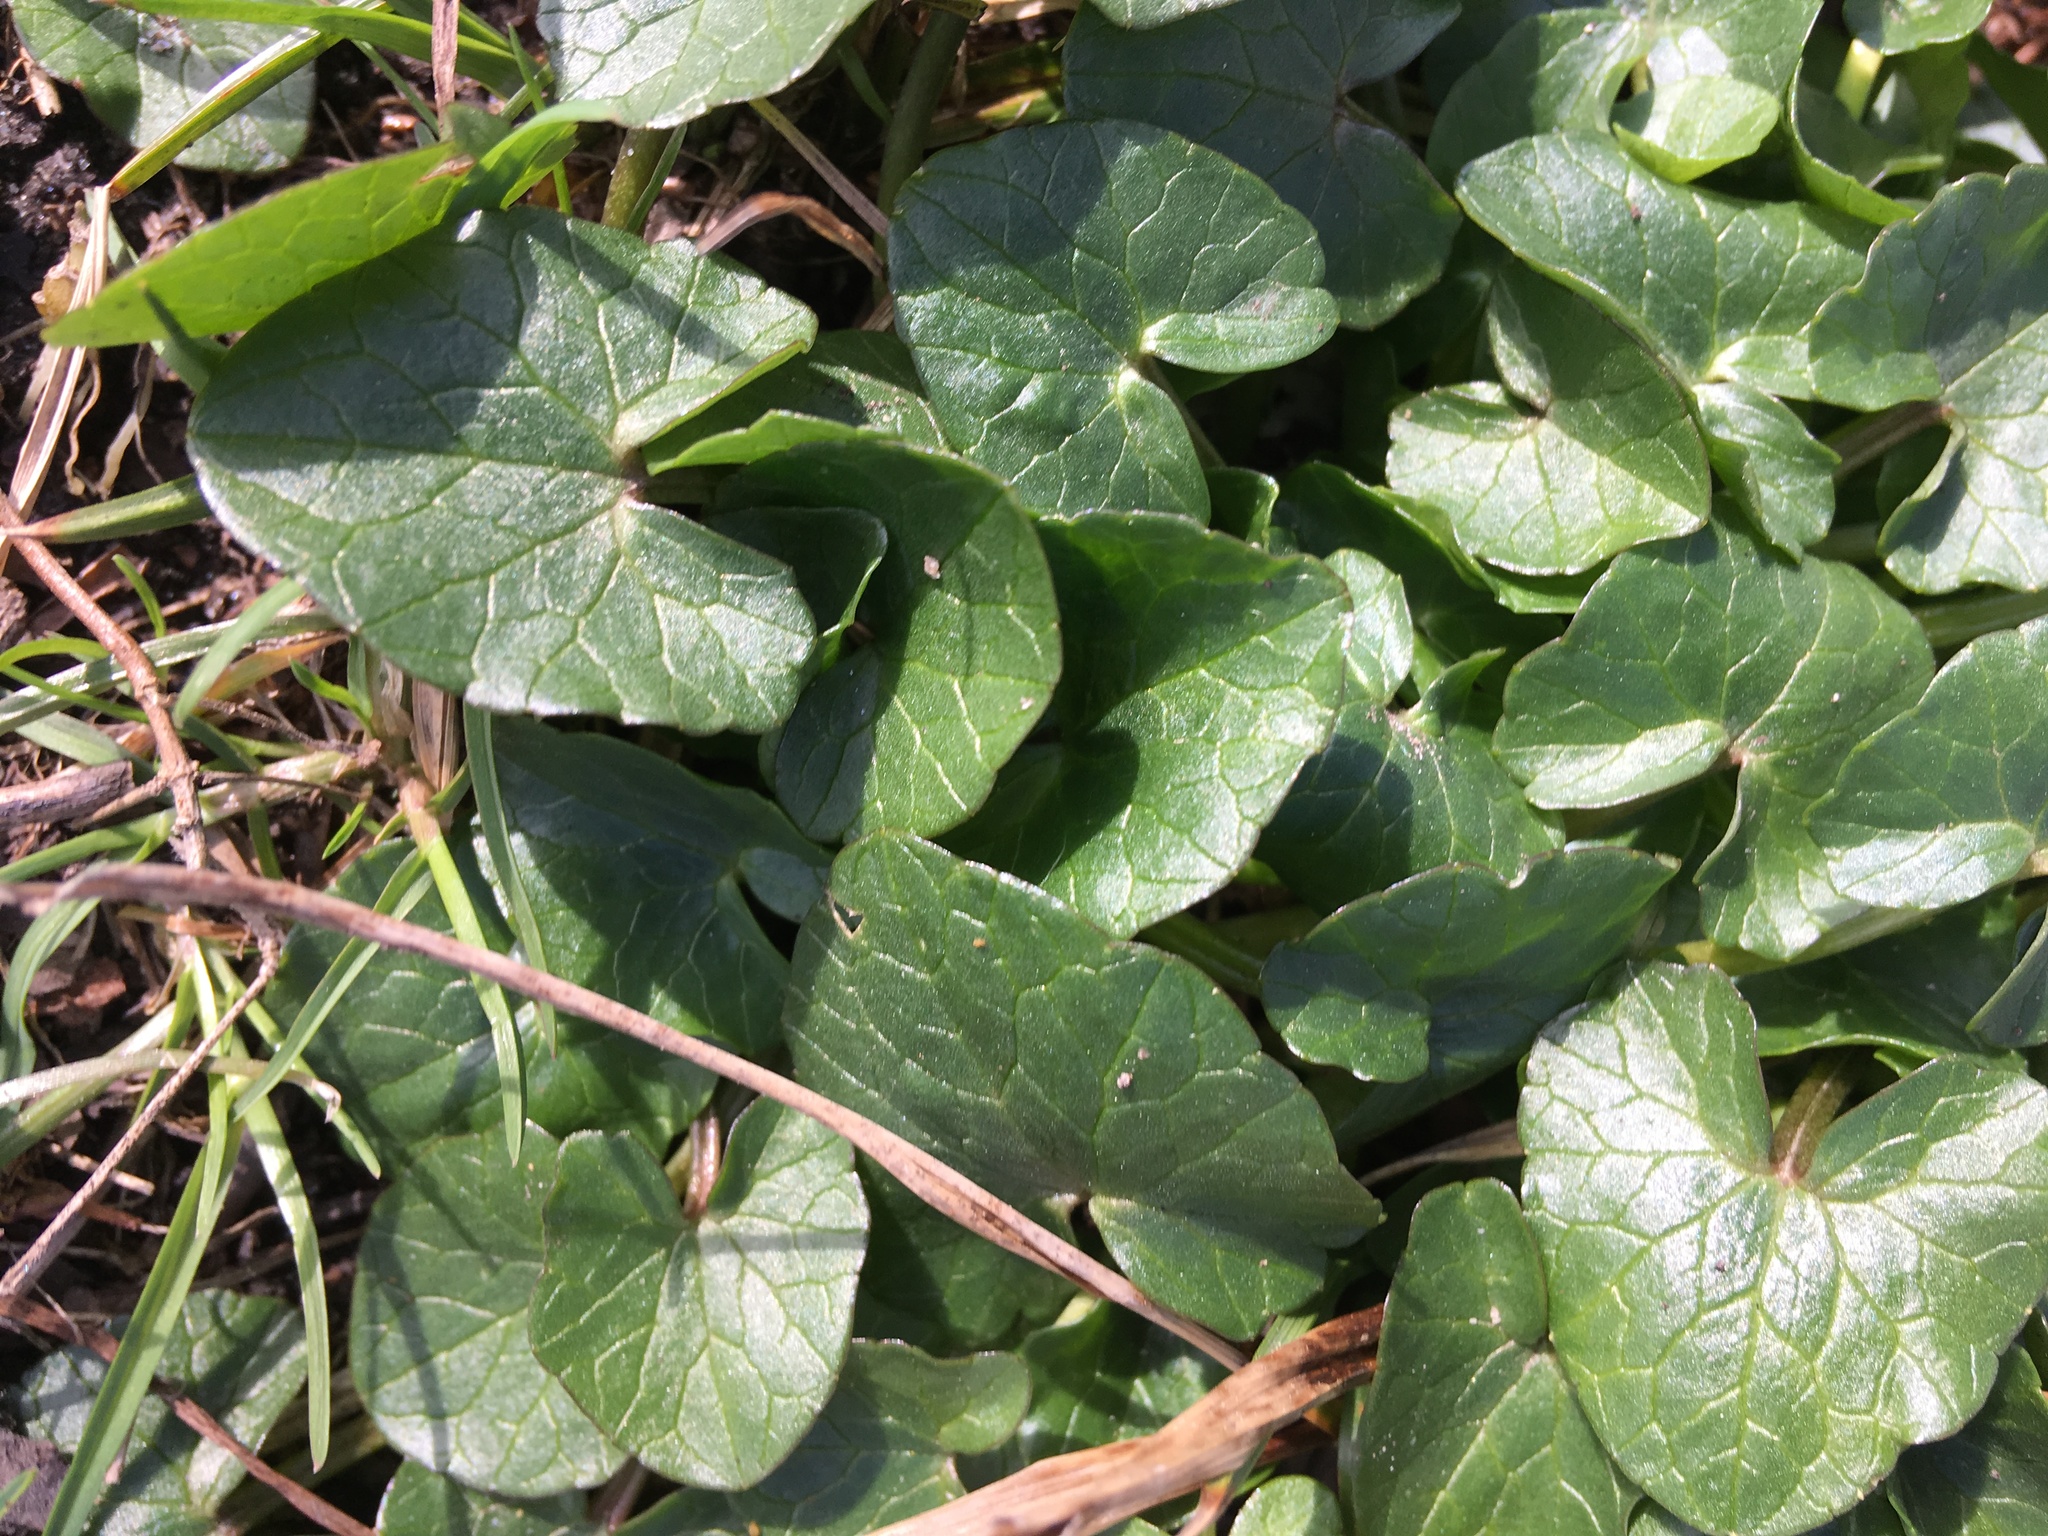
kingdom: Plantae
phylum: Tracheophyta
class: Magnoliopsida
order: Ranunculales
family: Ranunculaceae
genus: Ficaria
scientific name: Ficaria verna
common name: Lesser celandine
